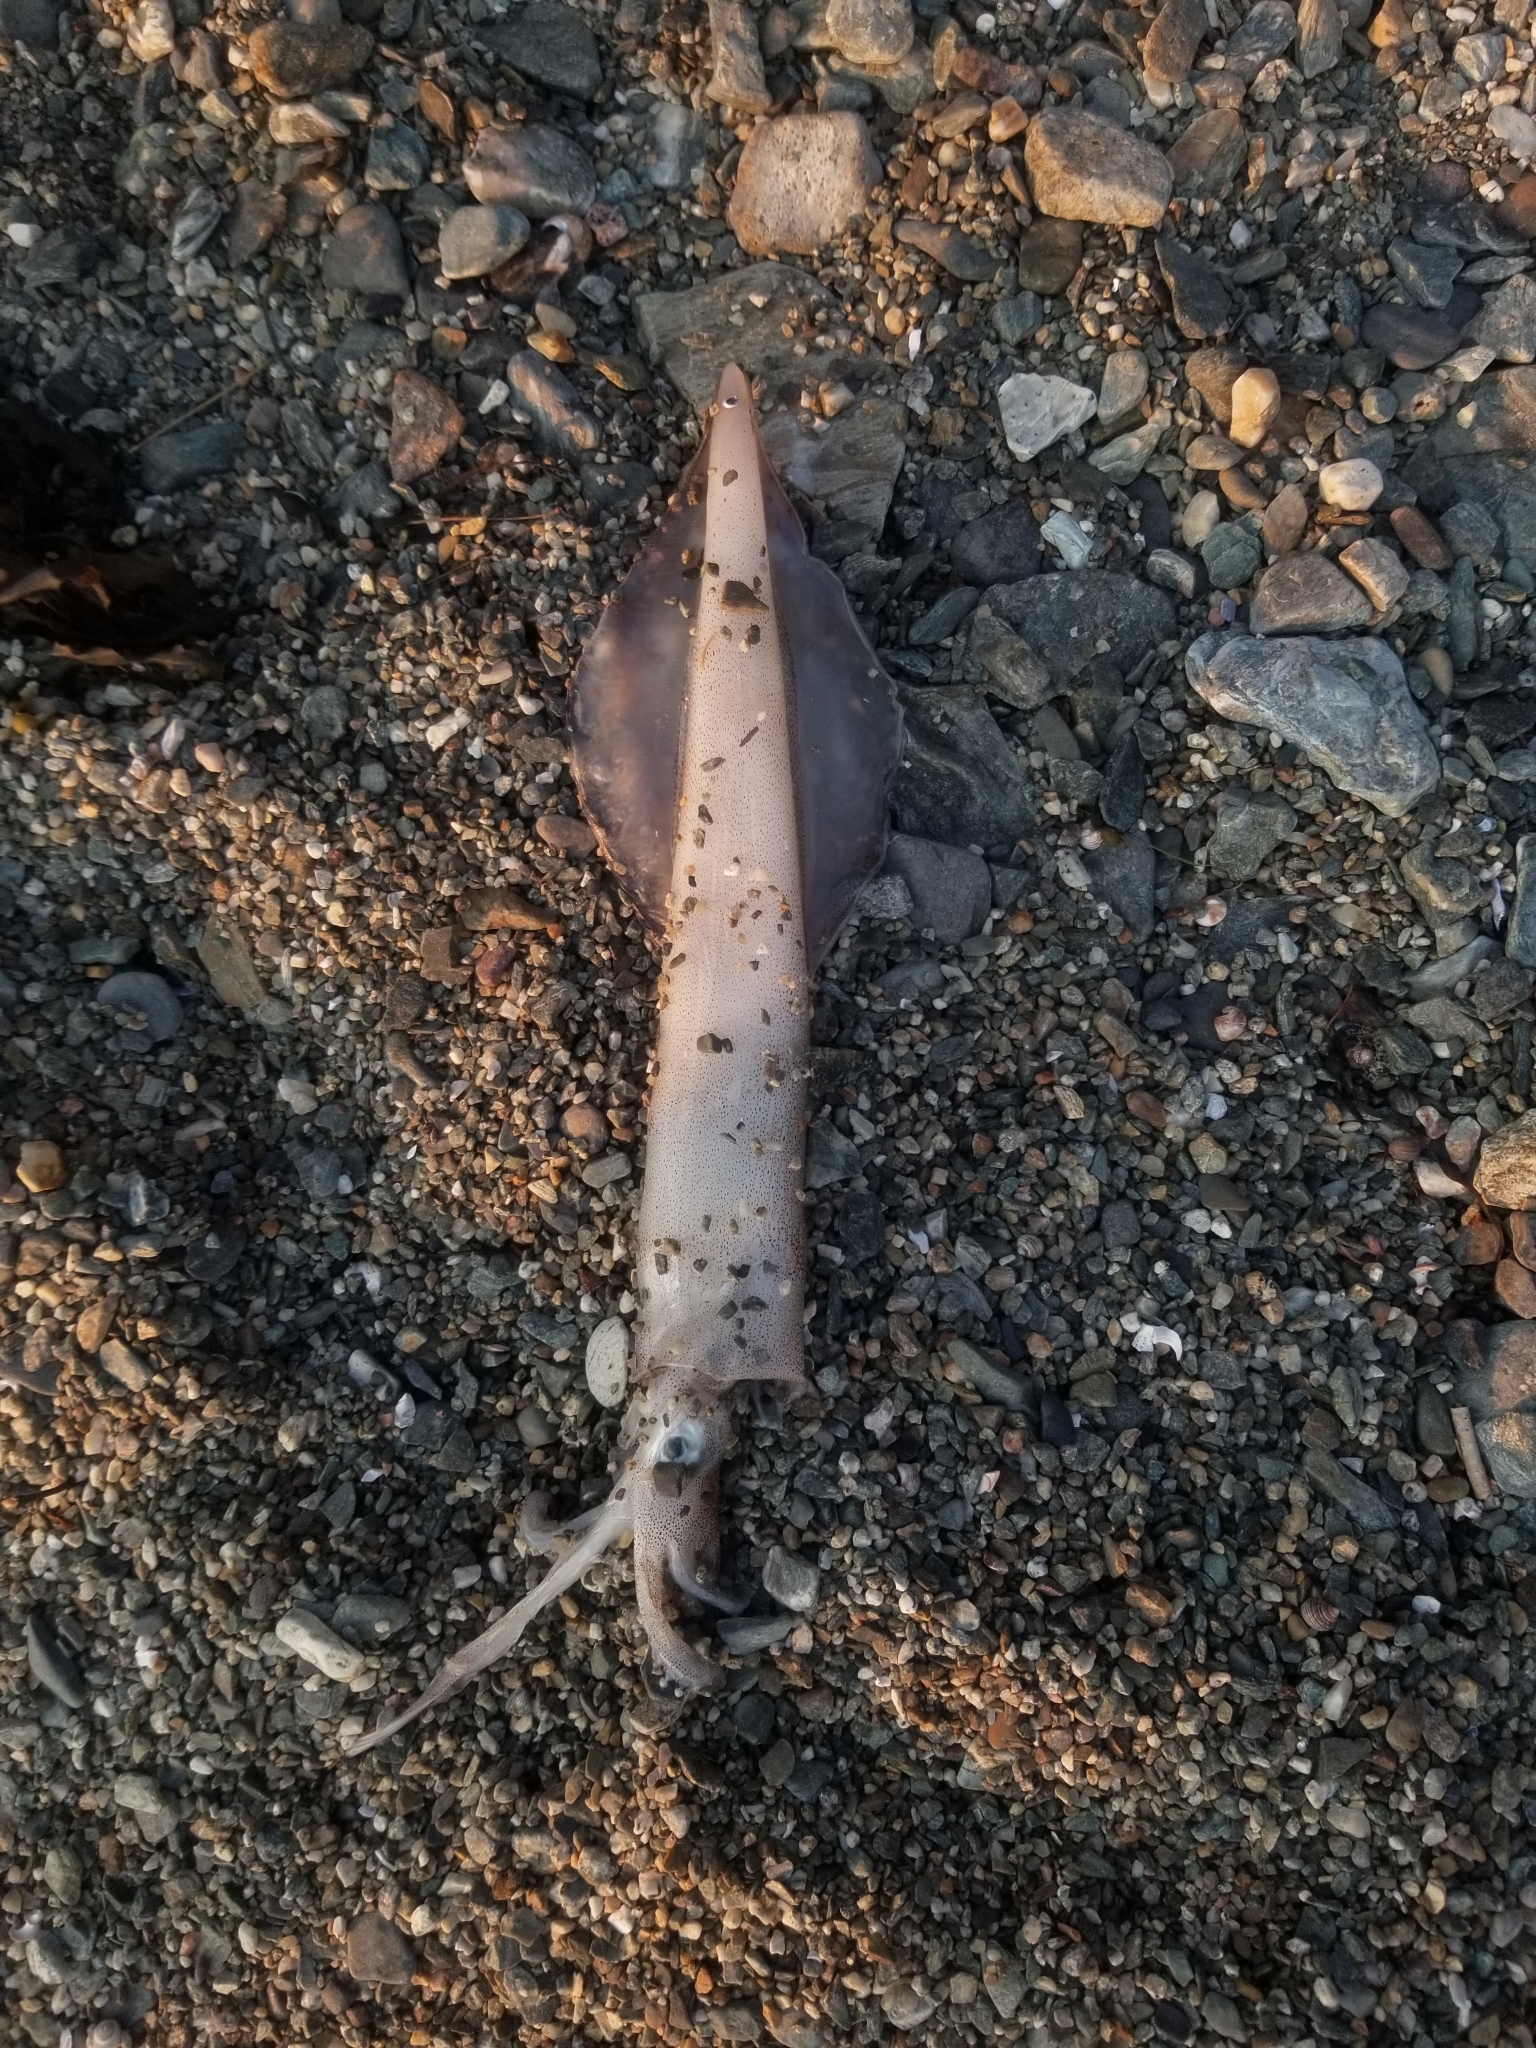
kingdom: Animalia
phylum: Mollusca
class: Cephalopoda
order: Myopsida
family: Loliginidae
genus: Doryteuthis
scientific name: Doryteuthis pealeii
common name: Long-finned inshore squid
